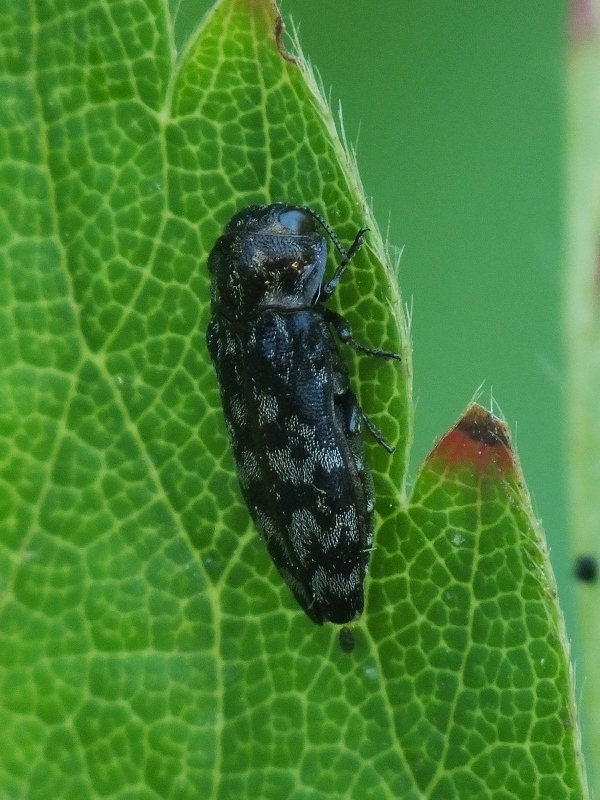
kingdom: Animalia
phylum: Arthropoda
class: Insecta
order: Coleoptera
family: Buprestidae
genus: Coraebus
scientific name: Coraebus rubi
